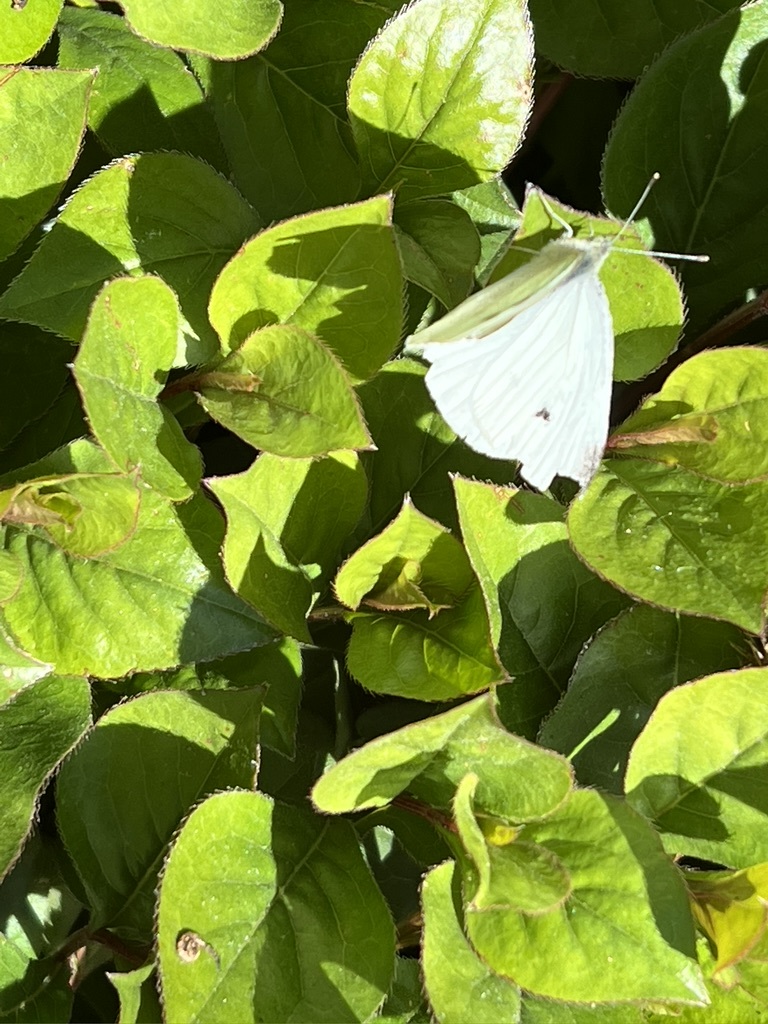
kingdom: Animalia
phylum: Arthropoda
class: Insecta
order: Lepidoptera
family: Pieridae
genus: Pieris
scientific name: Pieris rapae
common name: Small white
